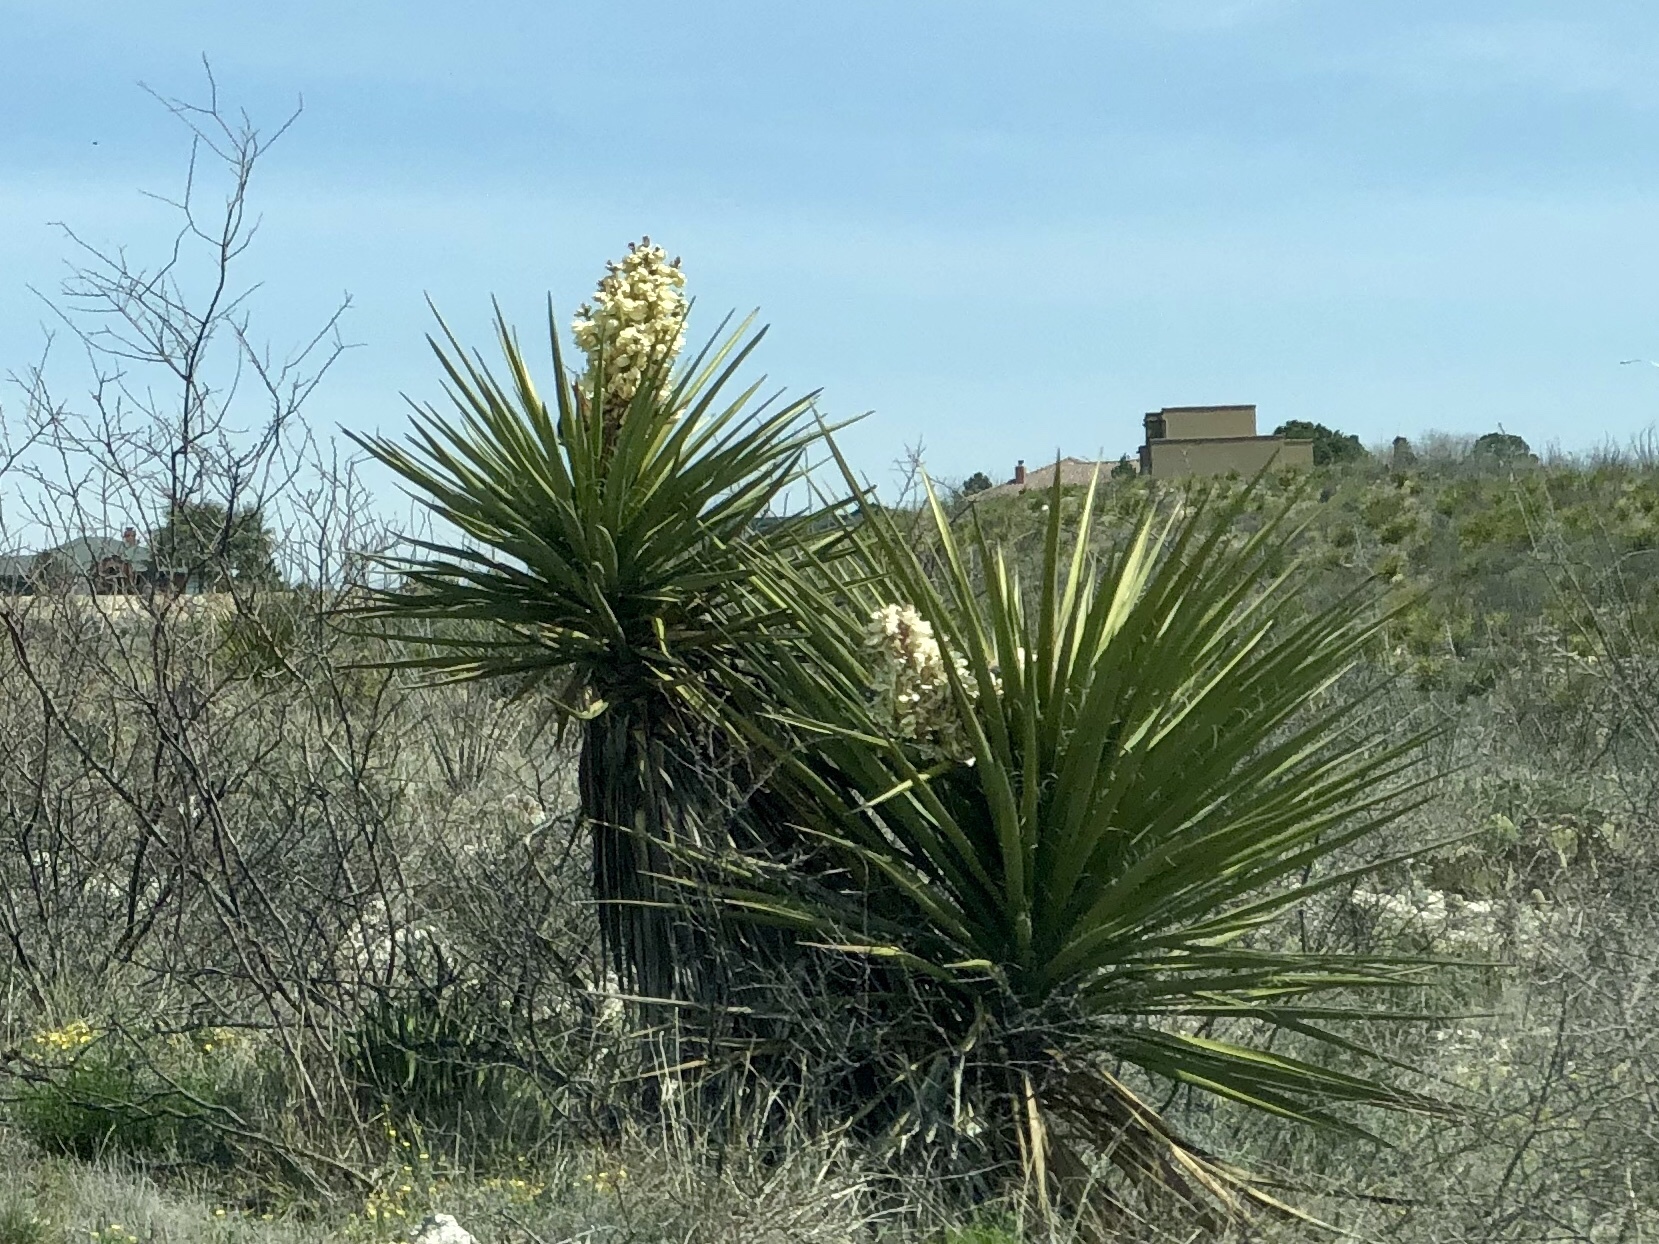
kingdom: Plantae
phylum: Tracheophyta
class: Liliopsida
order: Asparagales
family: Asparagaceae
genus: Yucca
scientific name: Yucca treculiana
